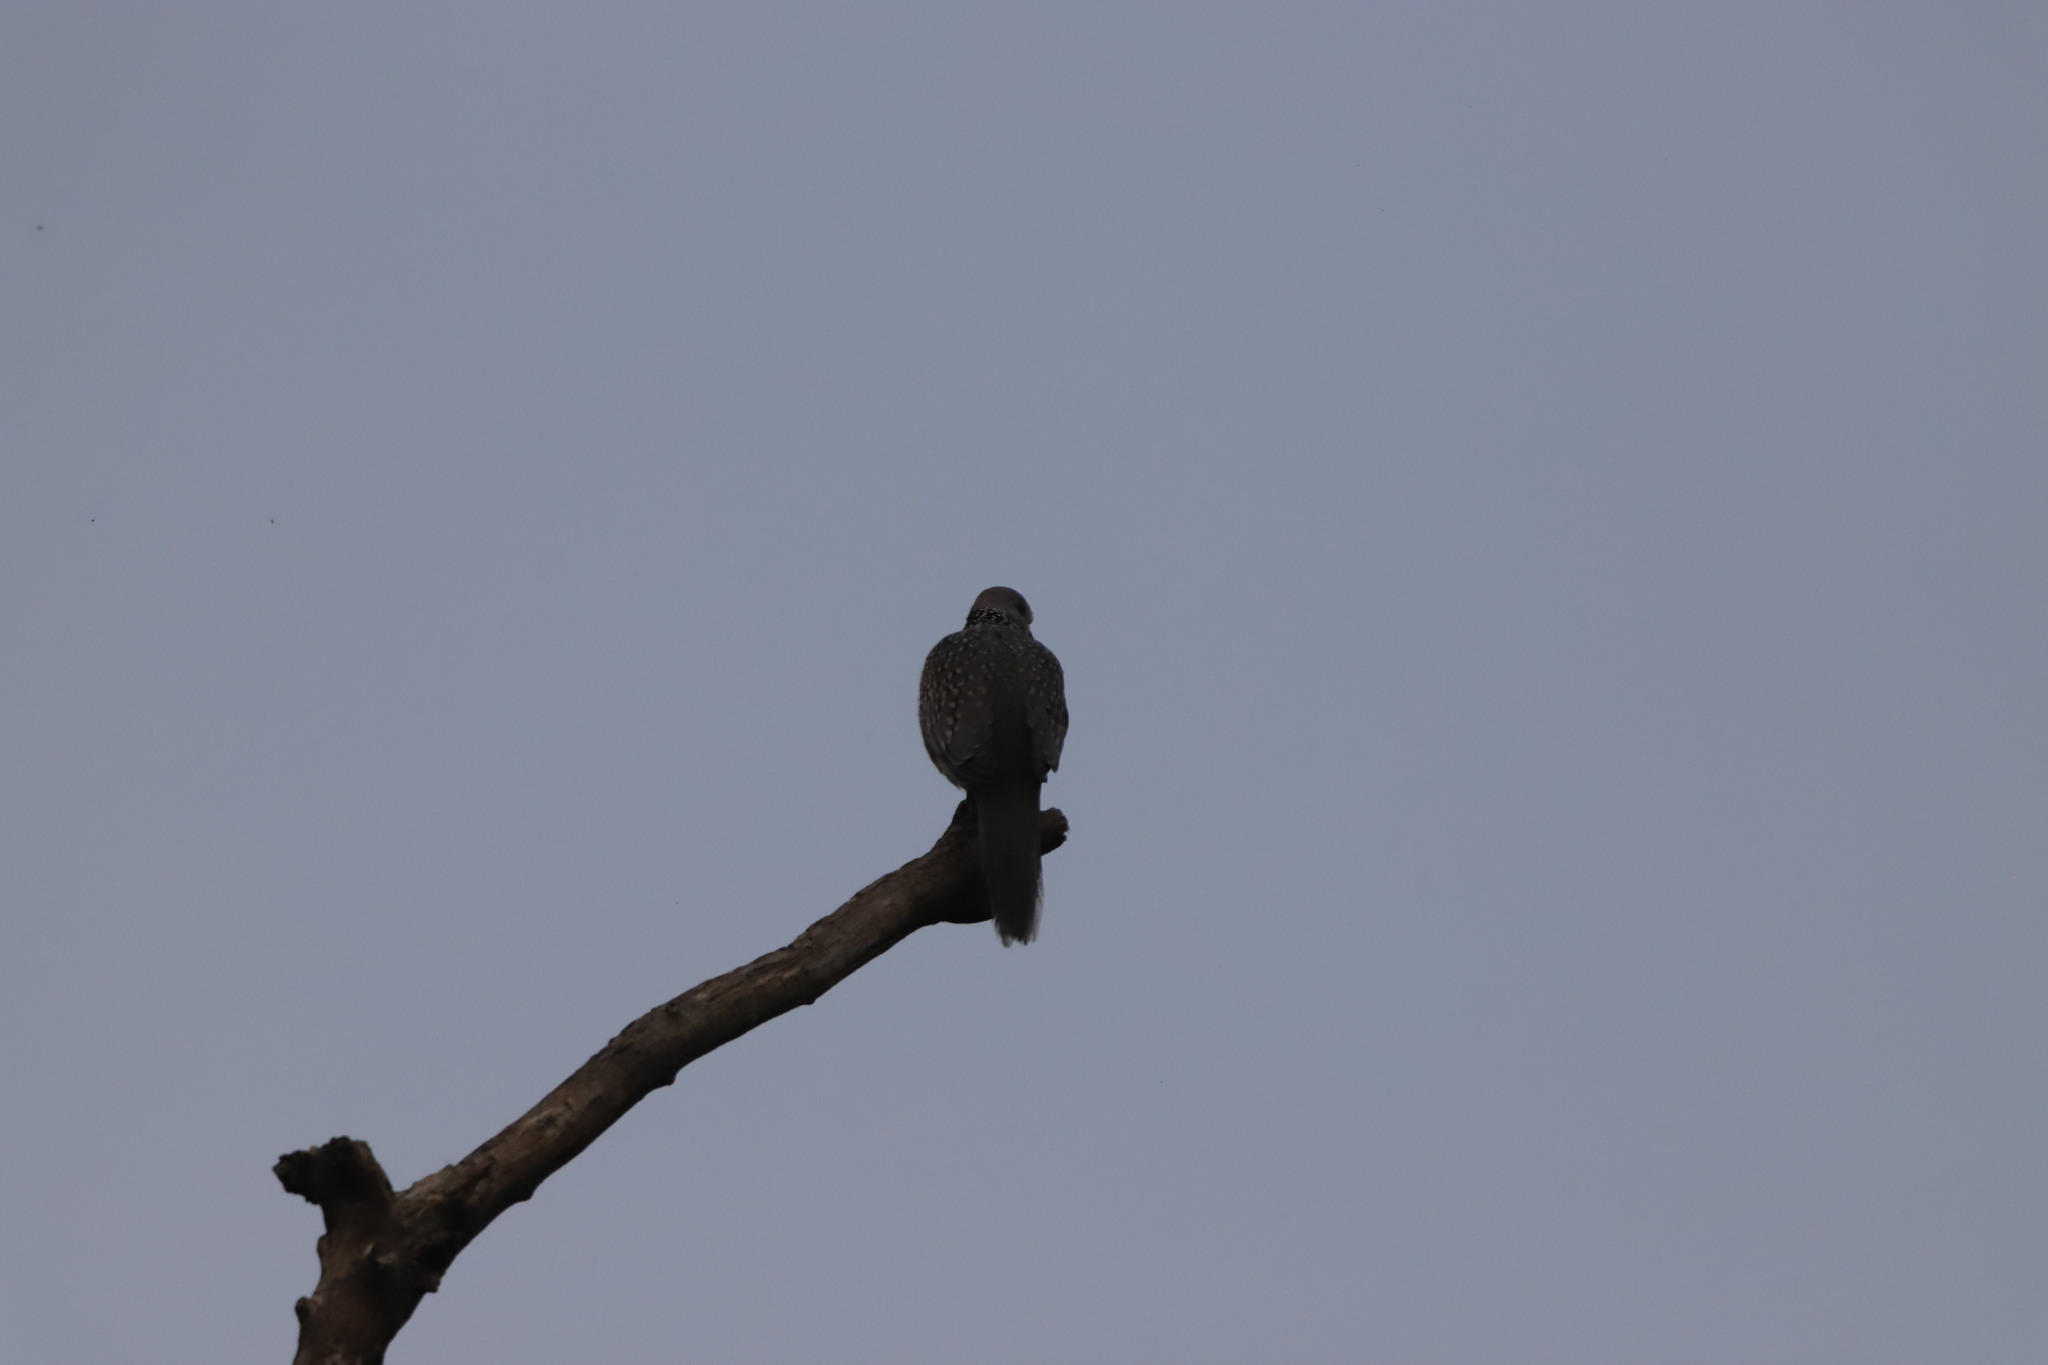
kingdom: Animalia
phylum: Chordata
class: Aves
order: Columbiformes
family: Columbidae
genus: Spilopelia
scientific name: Spilopelia chinensis
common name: Spotted dove
